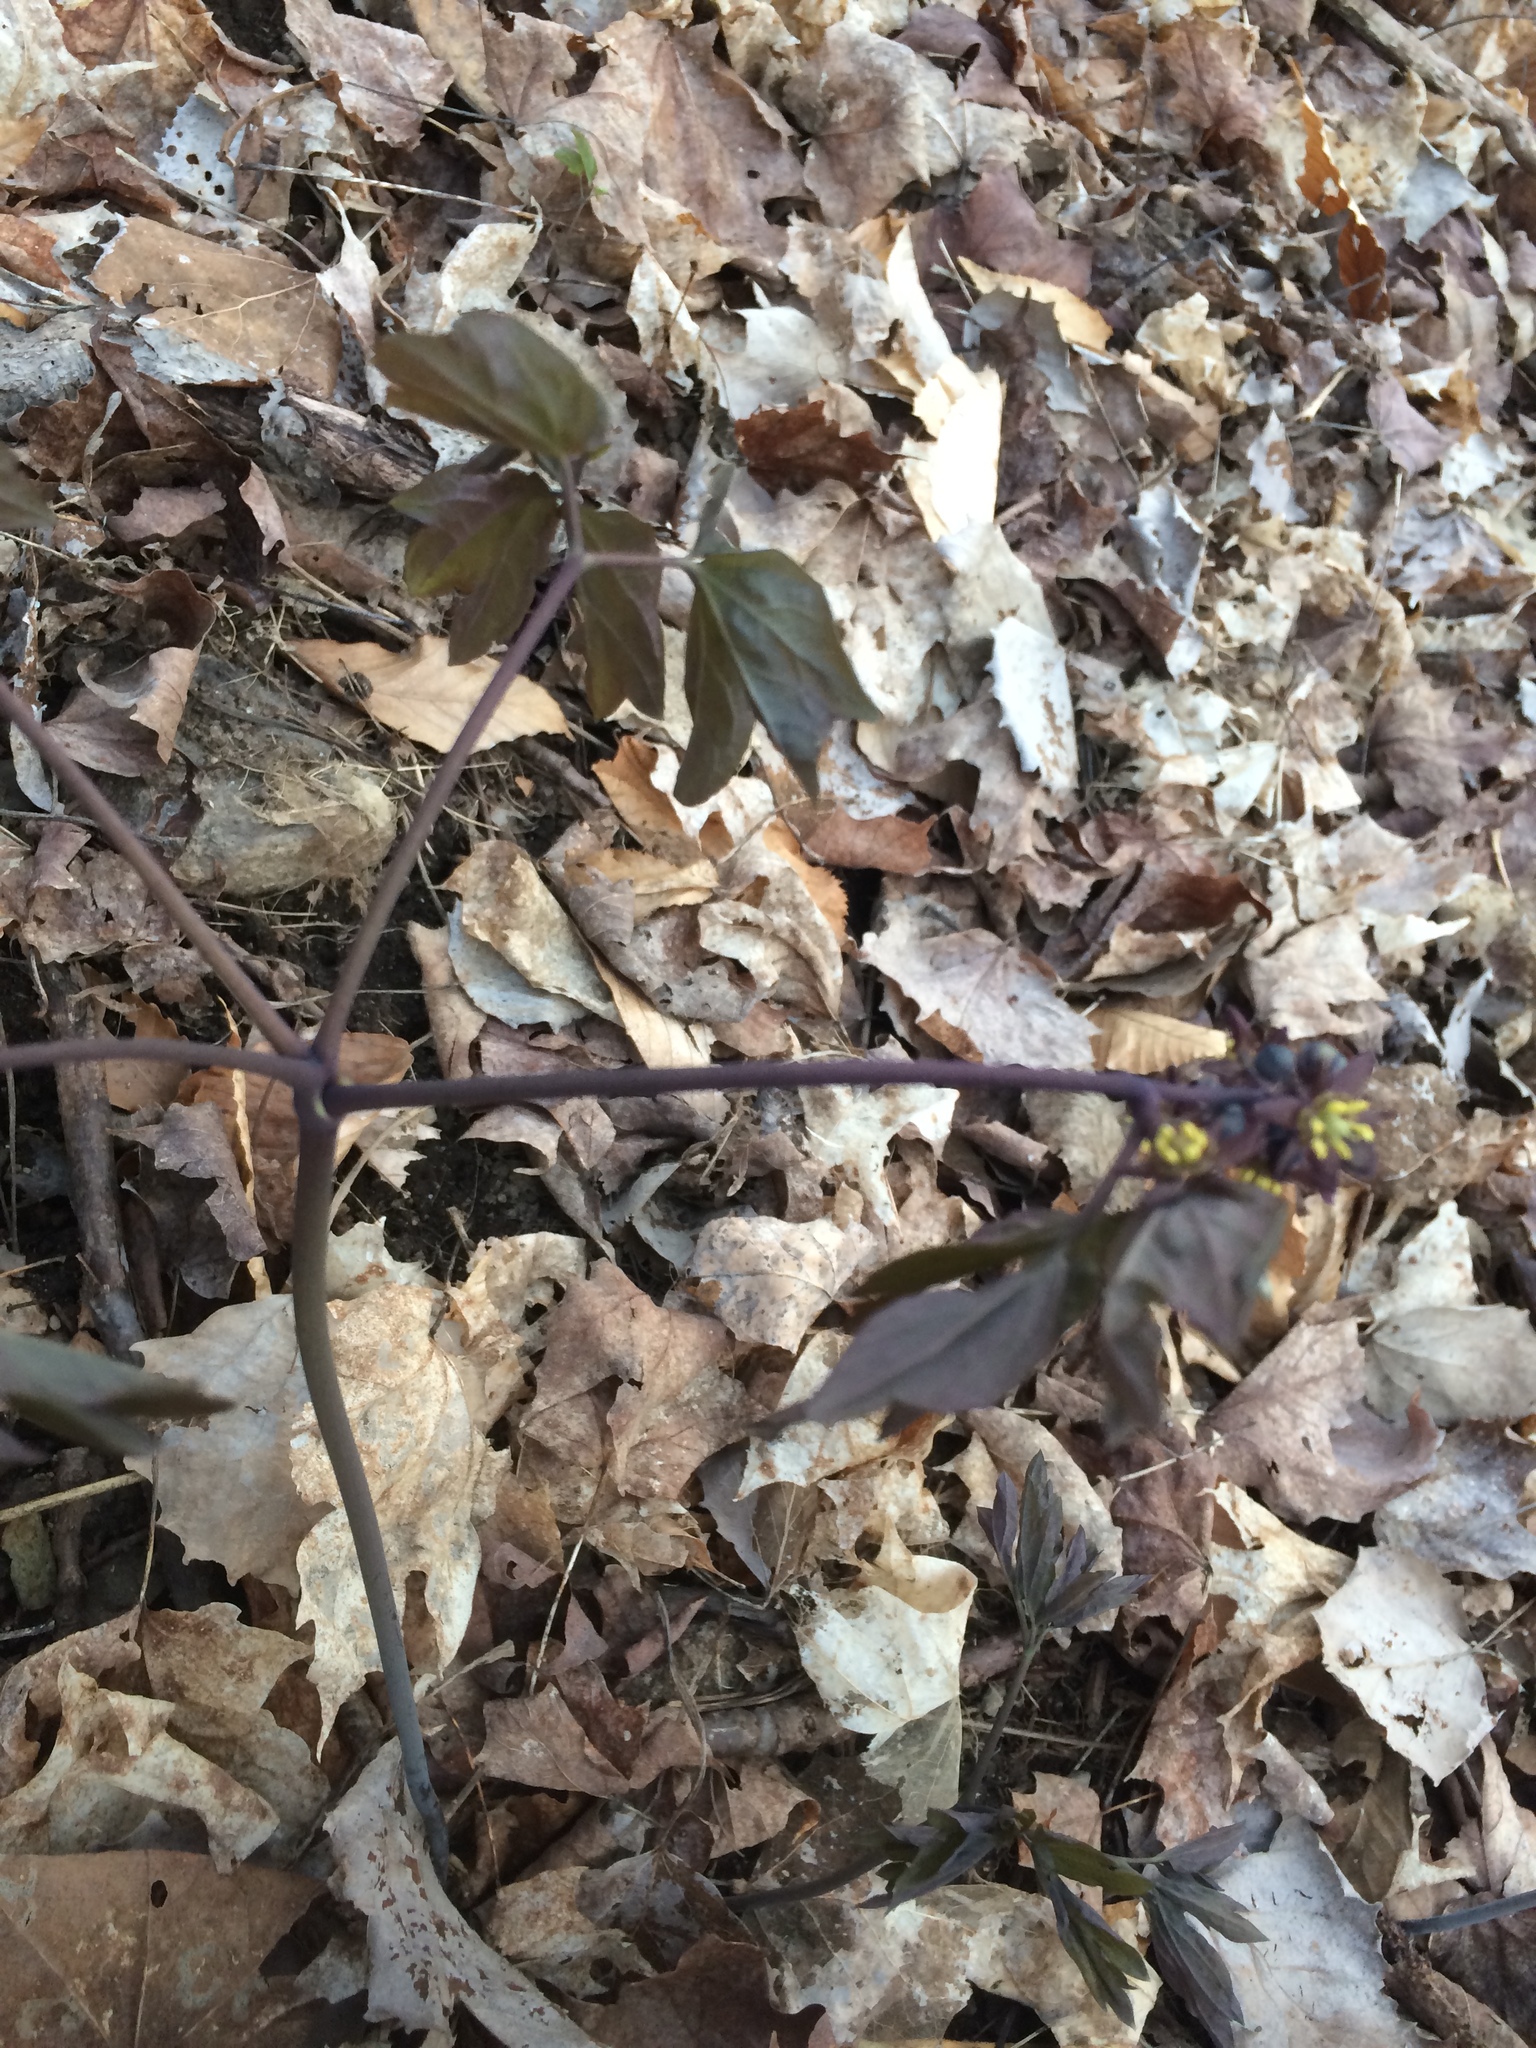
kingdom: Plantae
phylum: Tracheophyta
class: Magnoliopsida
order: Ranunculales
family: Berberidaceae
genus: Caulophyllum
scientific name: Caulophyllum giganteum
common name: Blue cohosh
